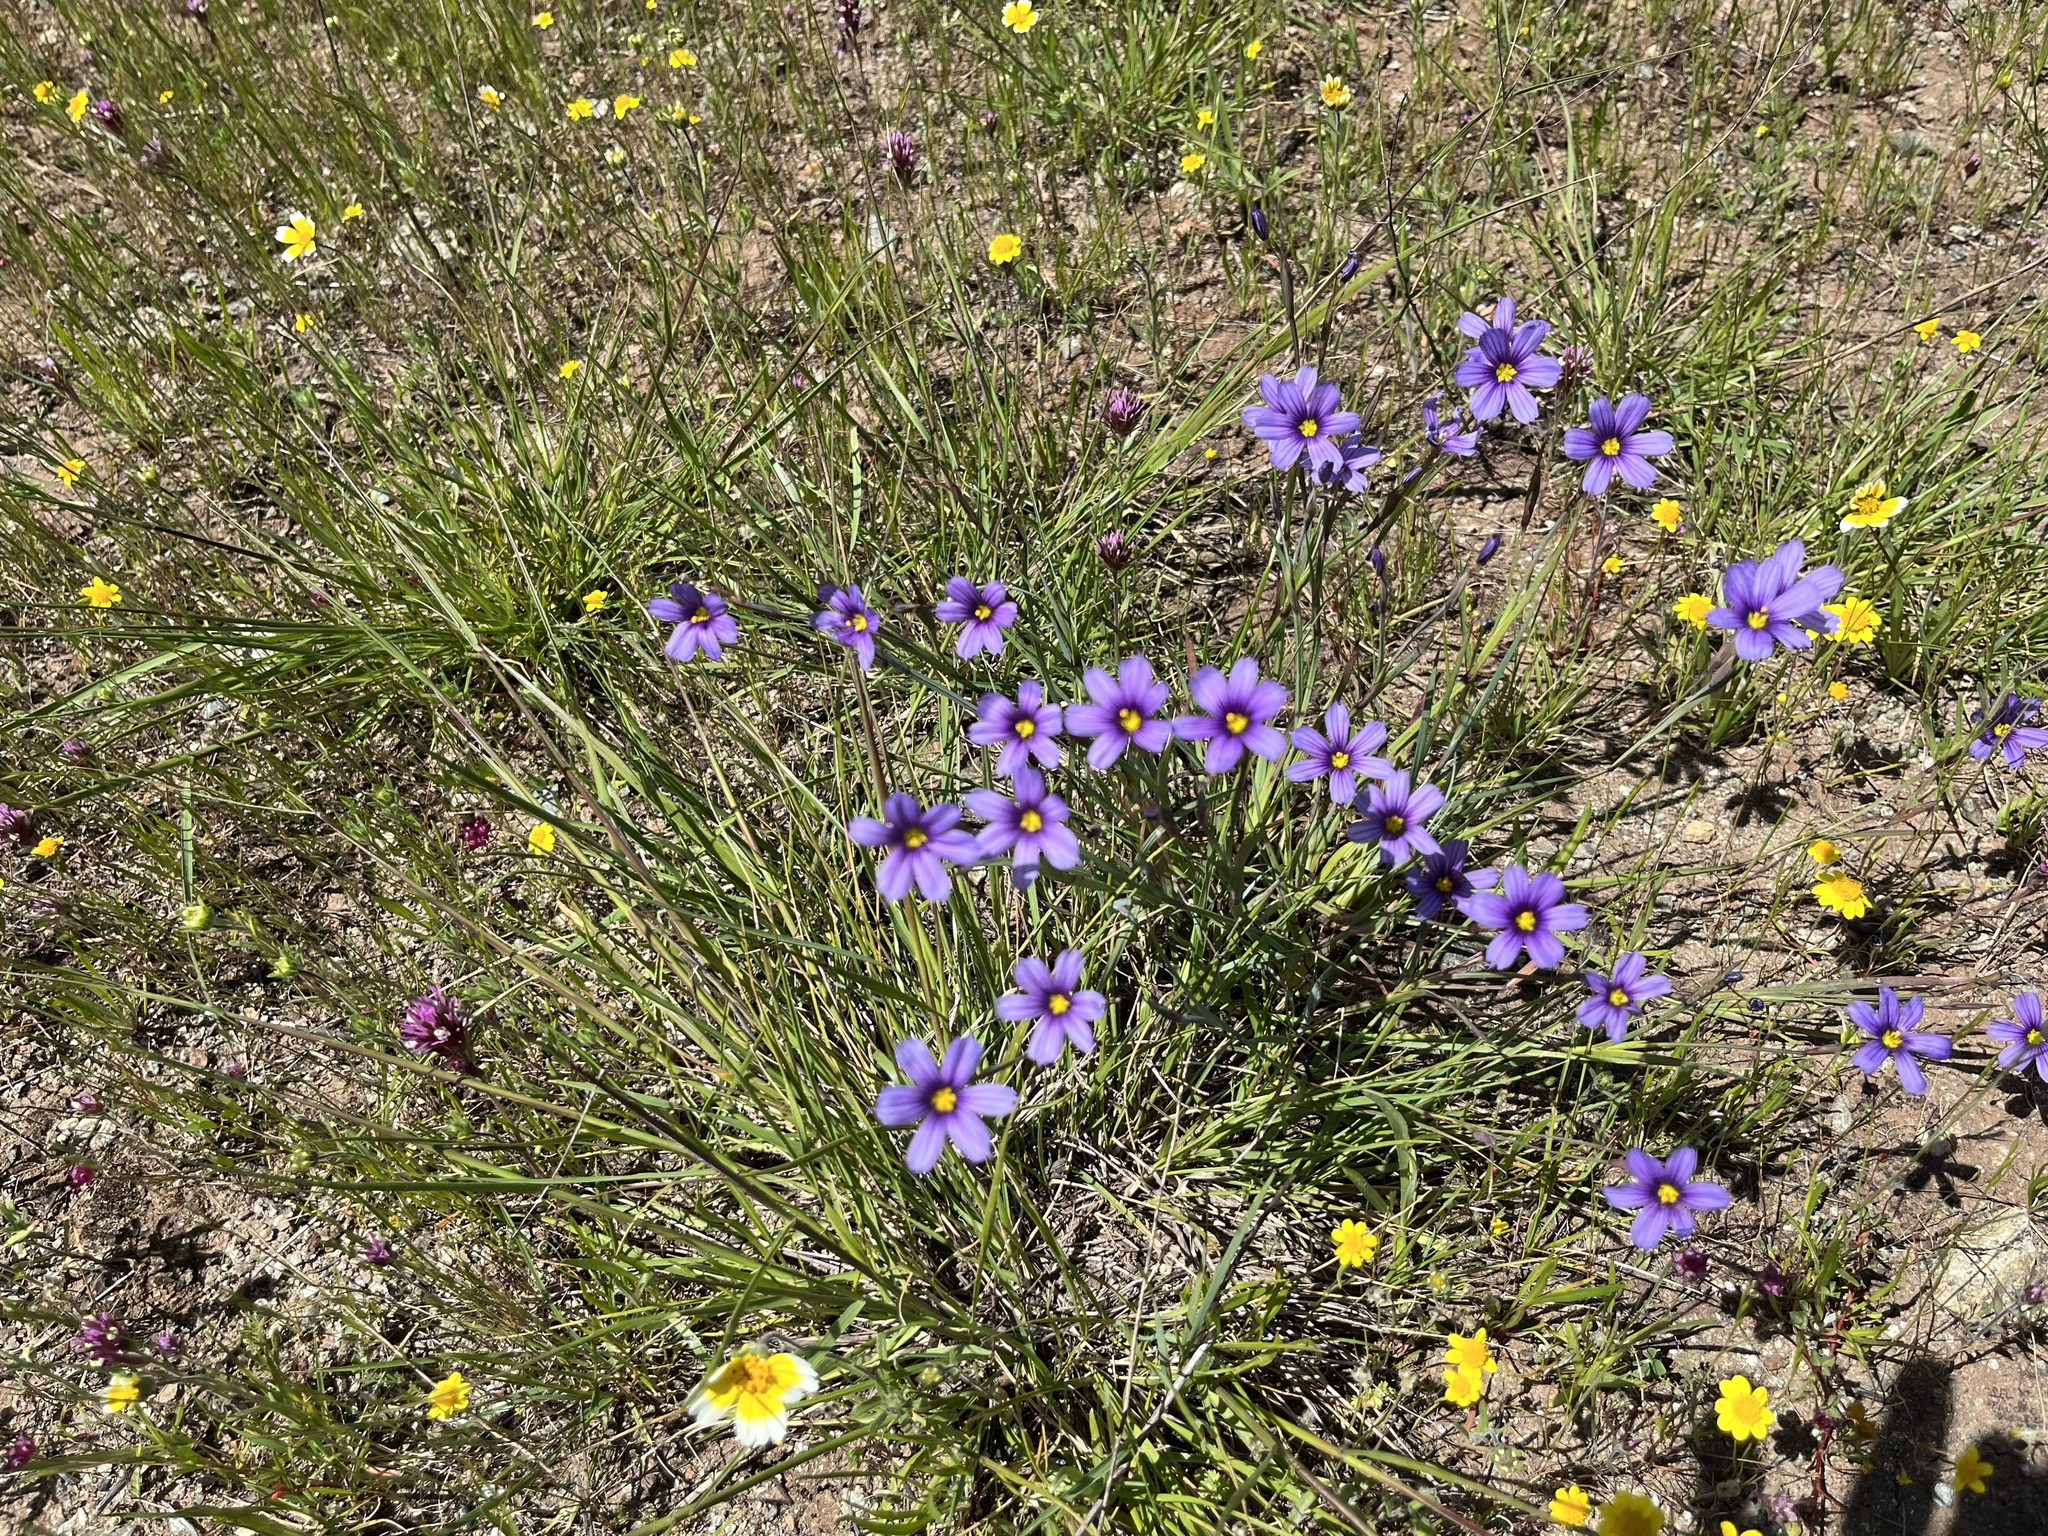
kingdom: Plantae
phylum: Tracheophyta
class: Liliopsida
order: Asparagales
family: Iridaceae
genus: Sisyrinchium
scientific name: Sisyrinchium bellum
